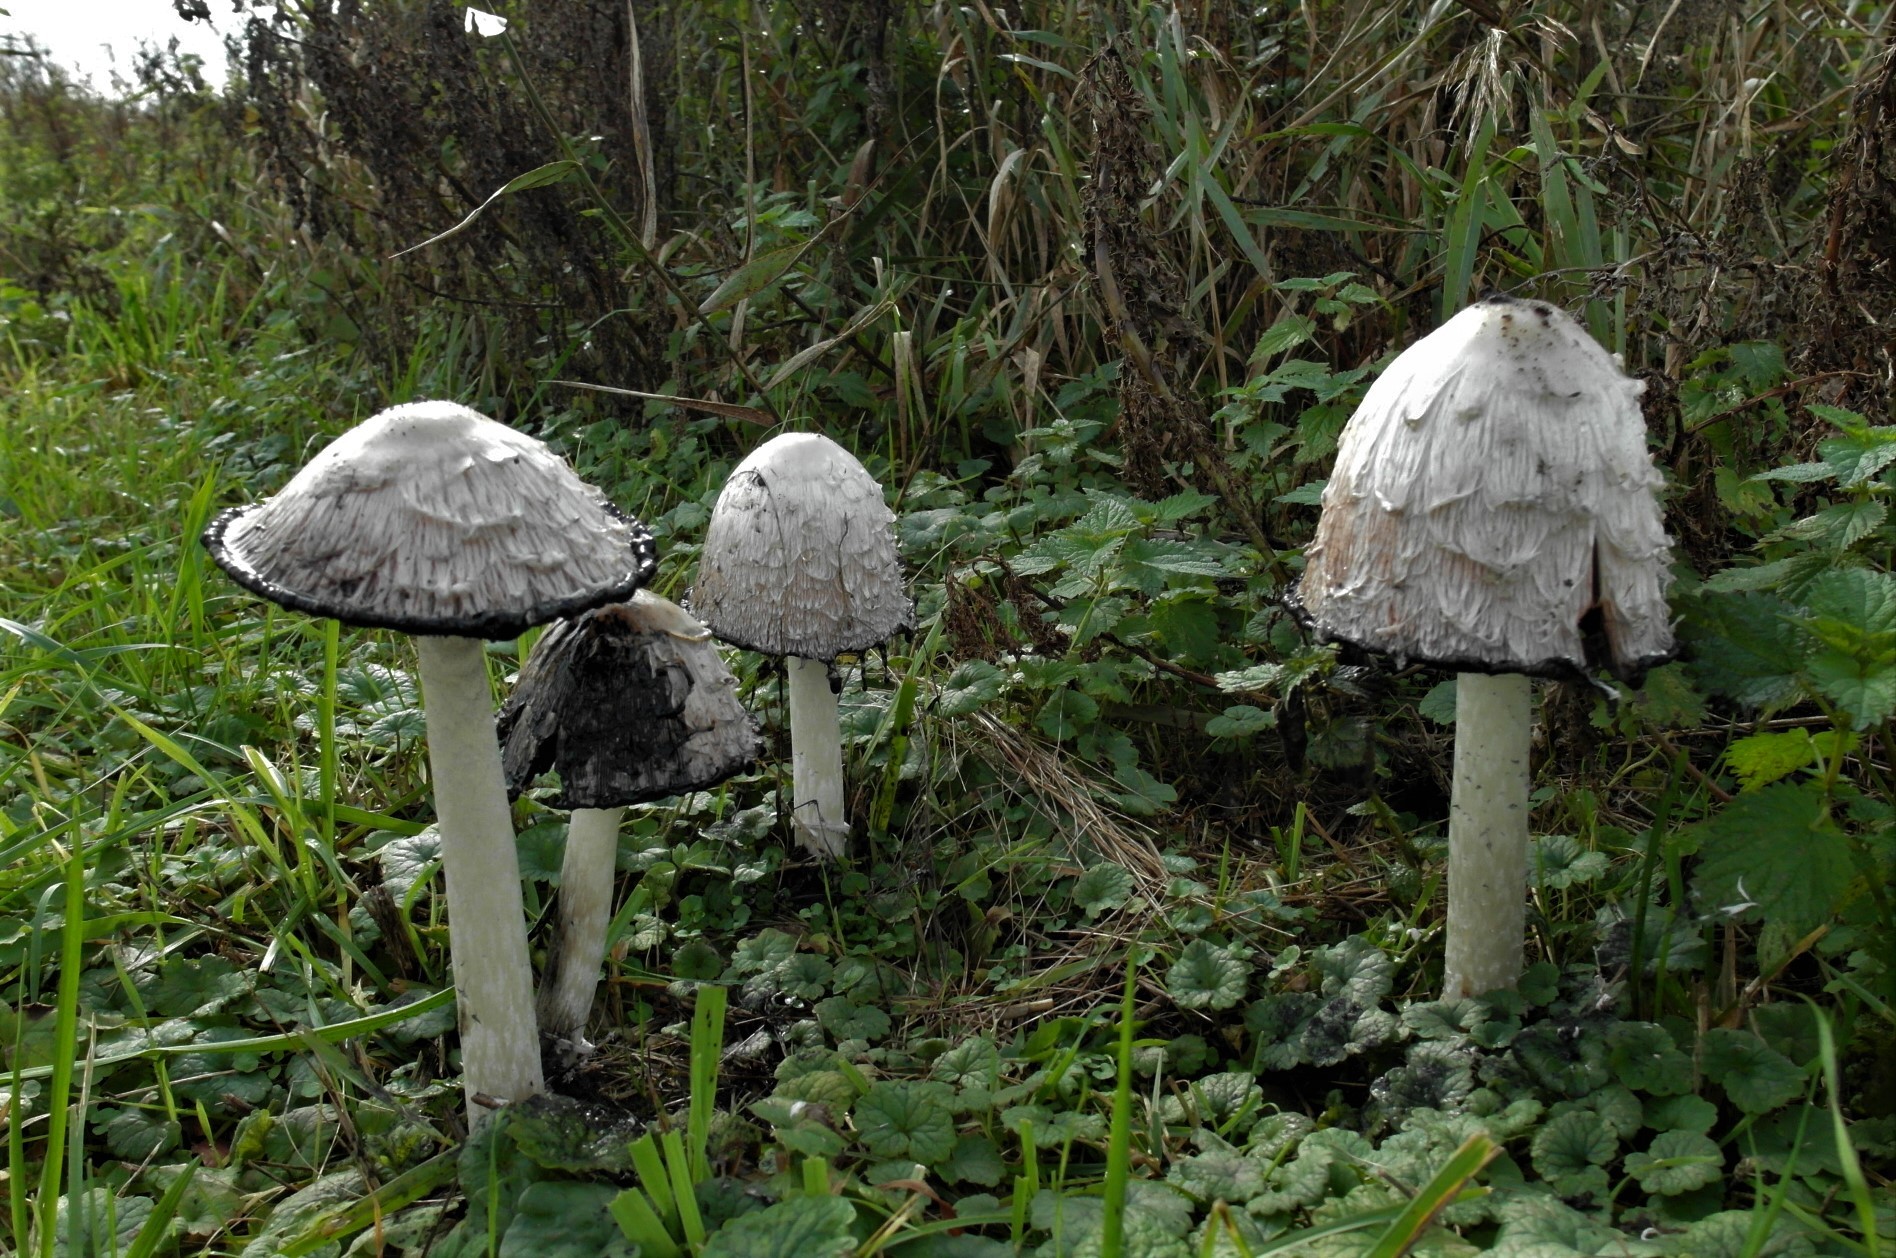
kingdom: Fungi
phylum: Basidiomycota
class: Agaricomycetes
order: Agaricales
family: Agaricaceae
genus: Coprinus
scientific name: Coprinus comatus
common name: Lawyer's wig
